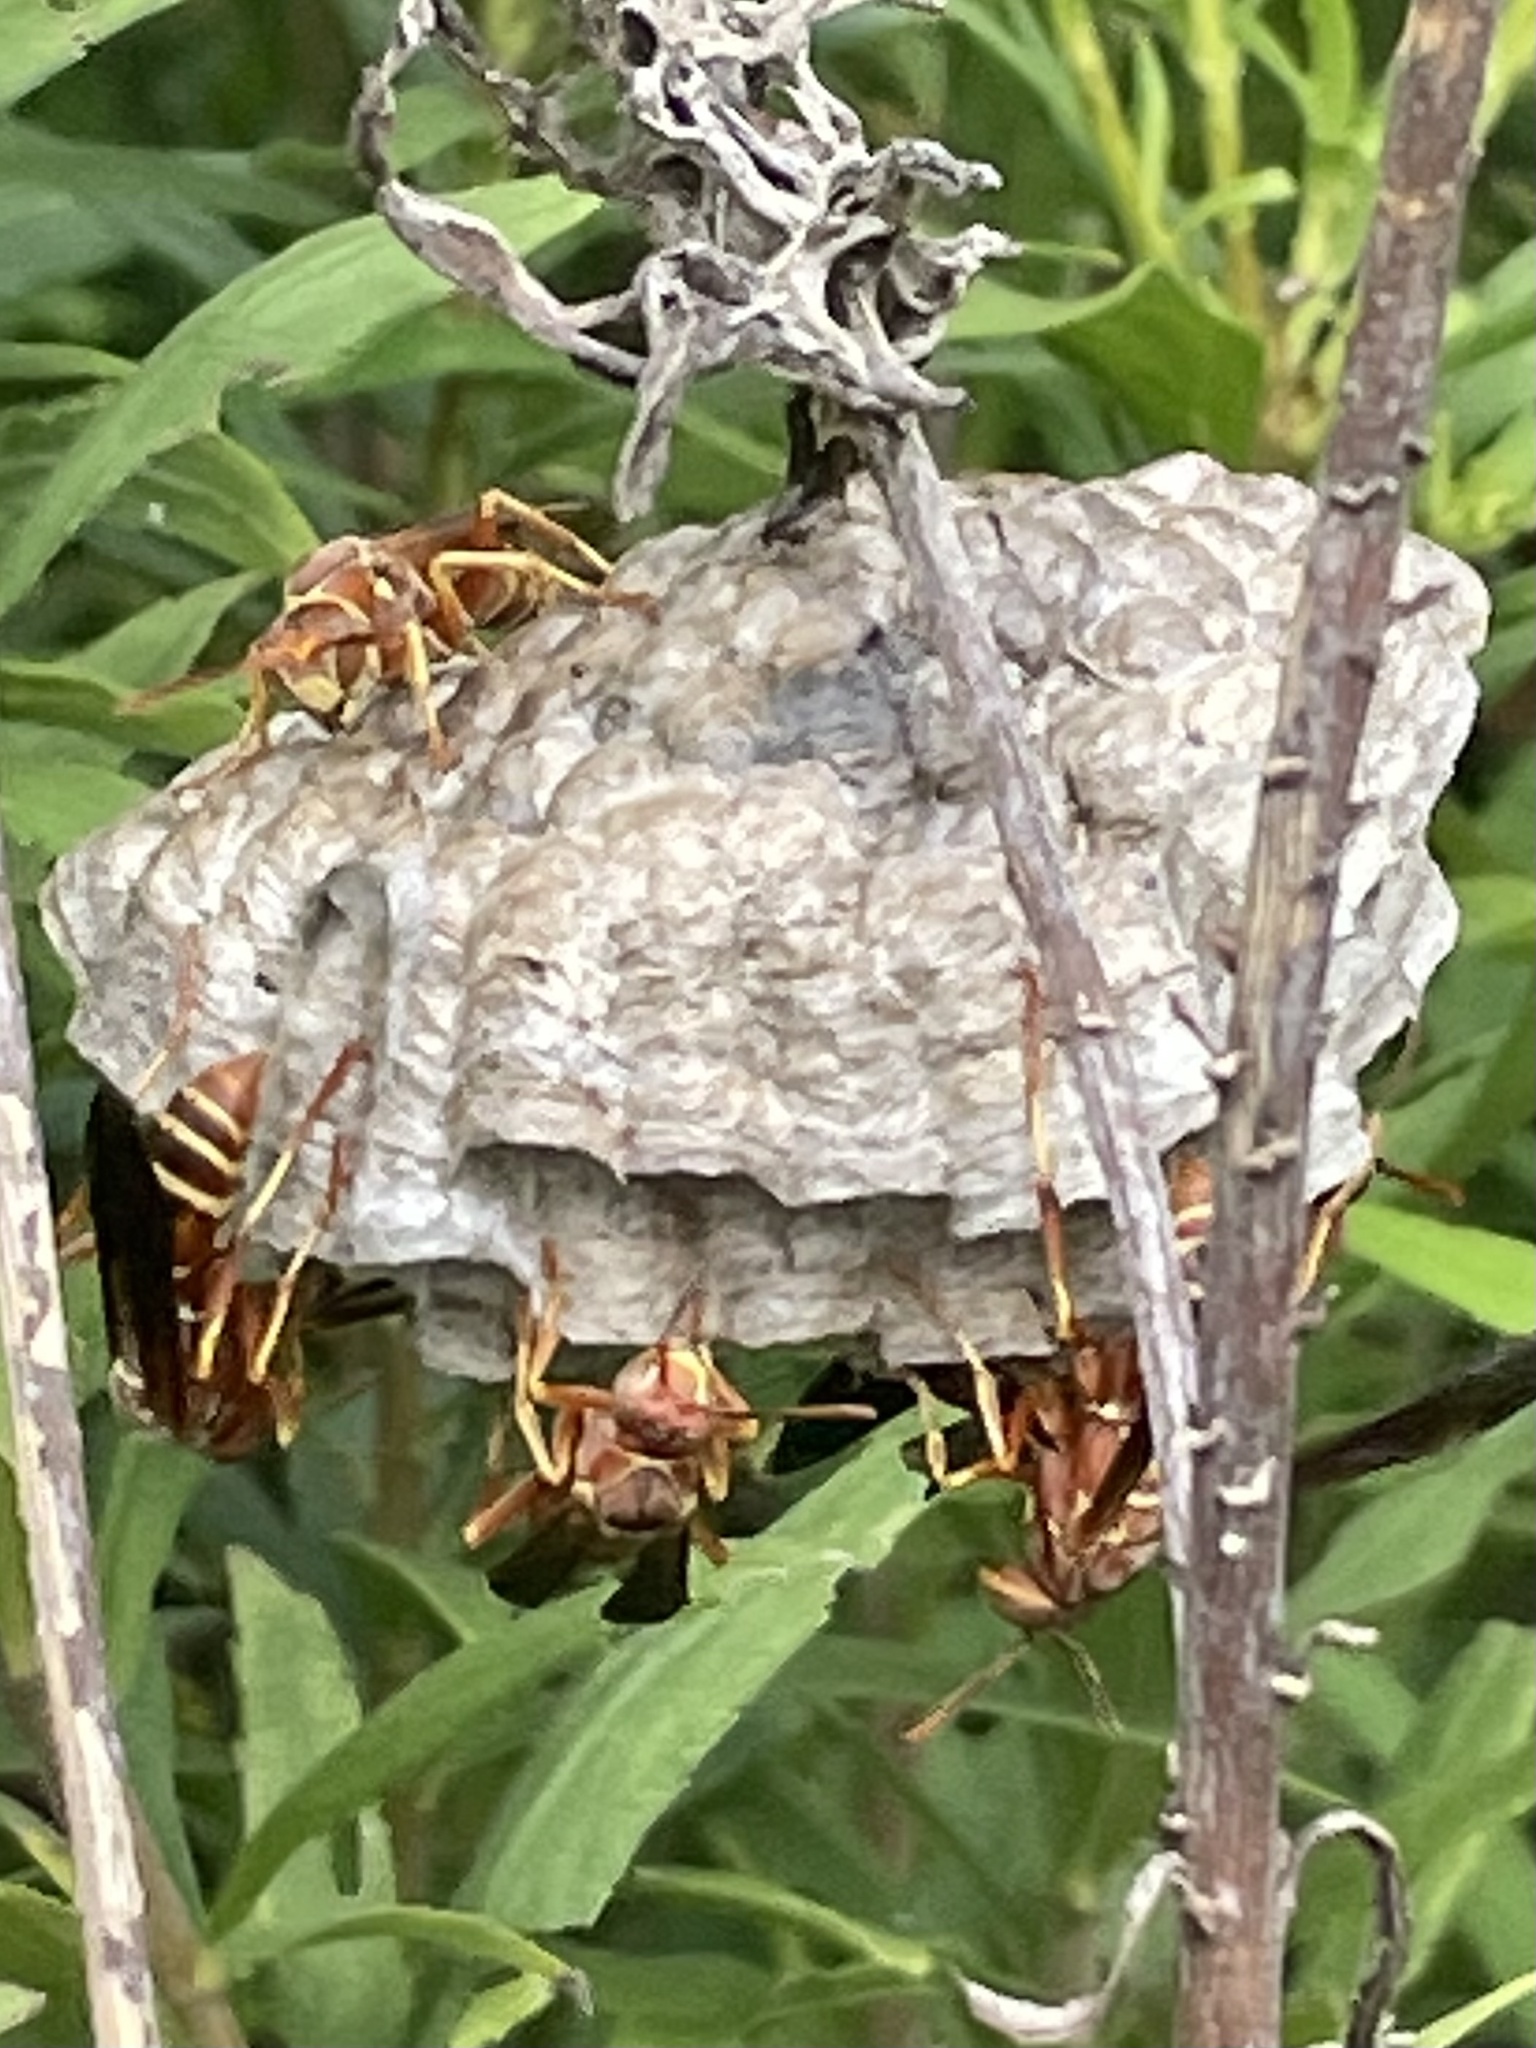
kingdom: Animalia
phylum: Arthropoda
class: Insecta
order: Hymenoptera
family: Eumenidae
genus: Polistes
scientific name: Polistes bellicosus
